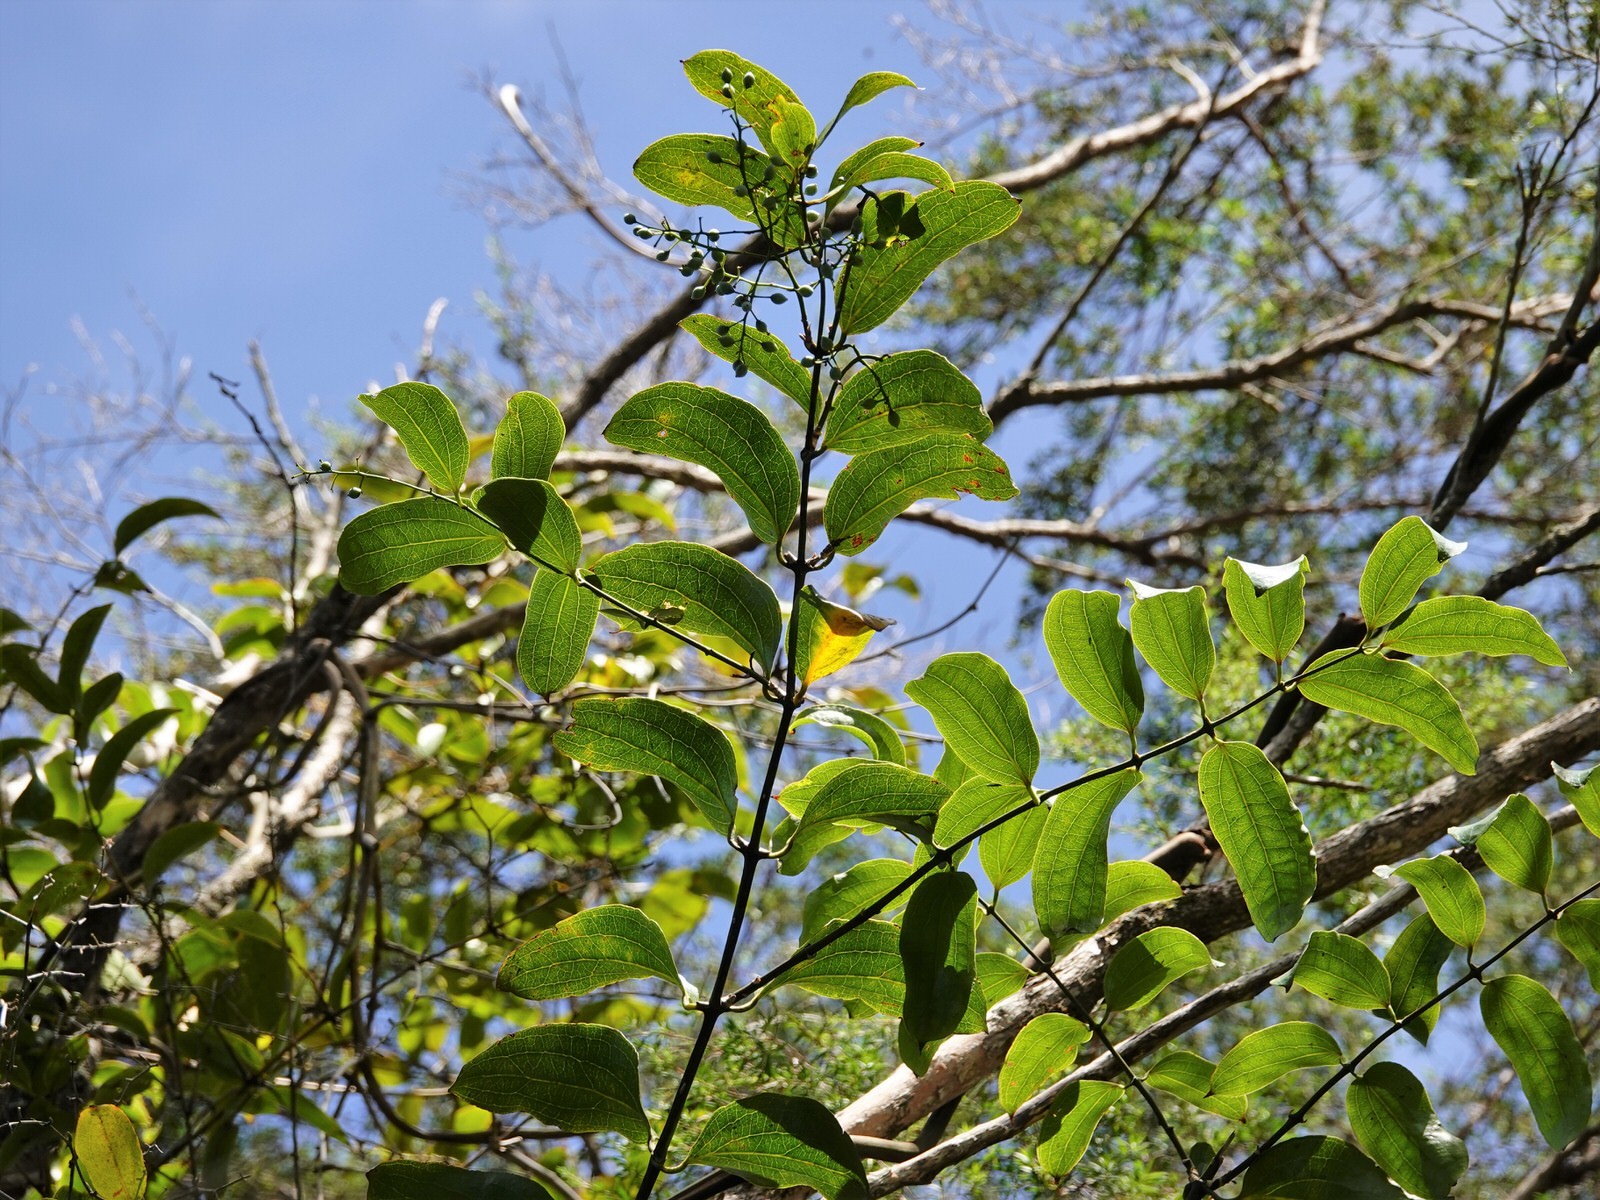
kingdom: Plantae
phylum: Tracheophyta
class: Liliopsida
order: Liliales
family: Ripogonaceae
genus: Ripogonum
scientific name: Ripogonum scandens
